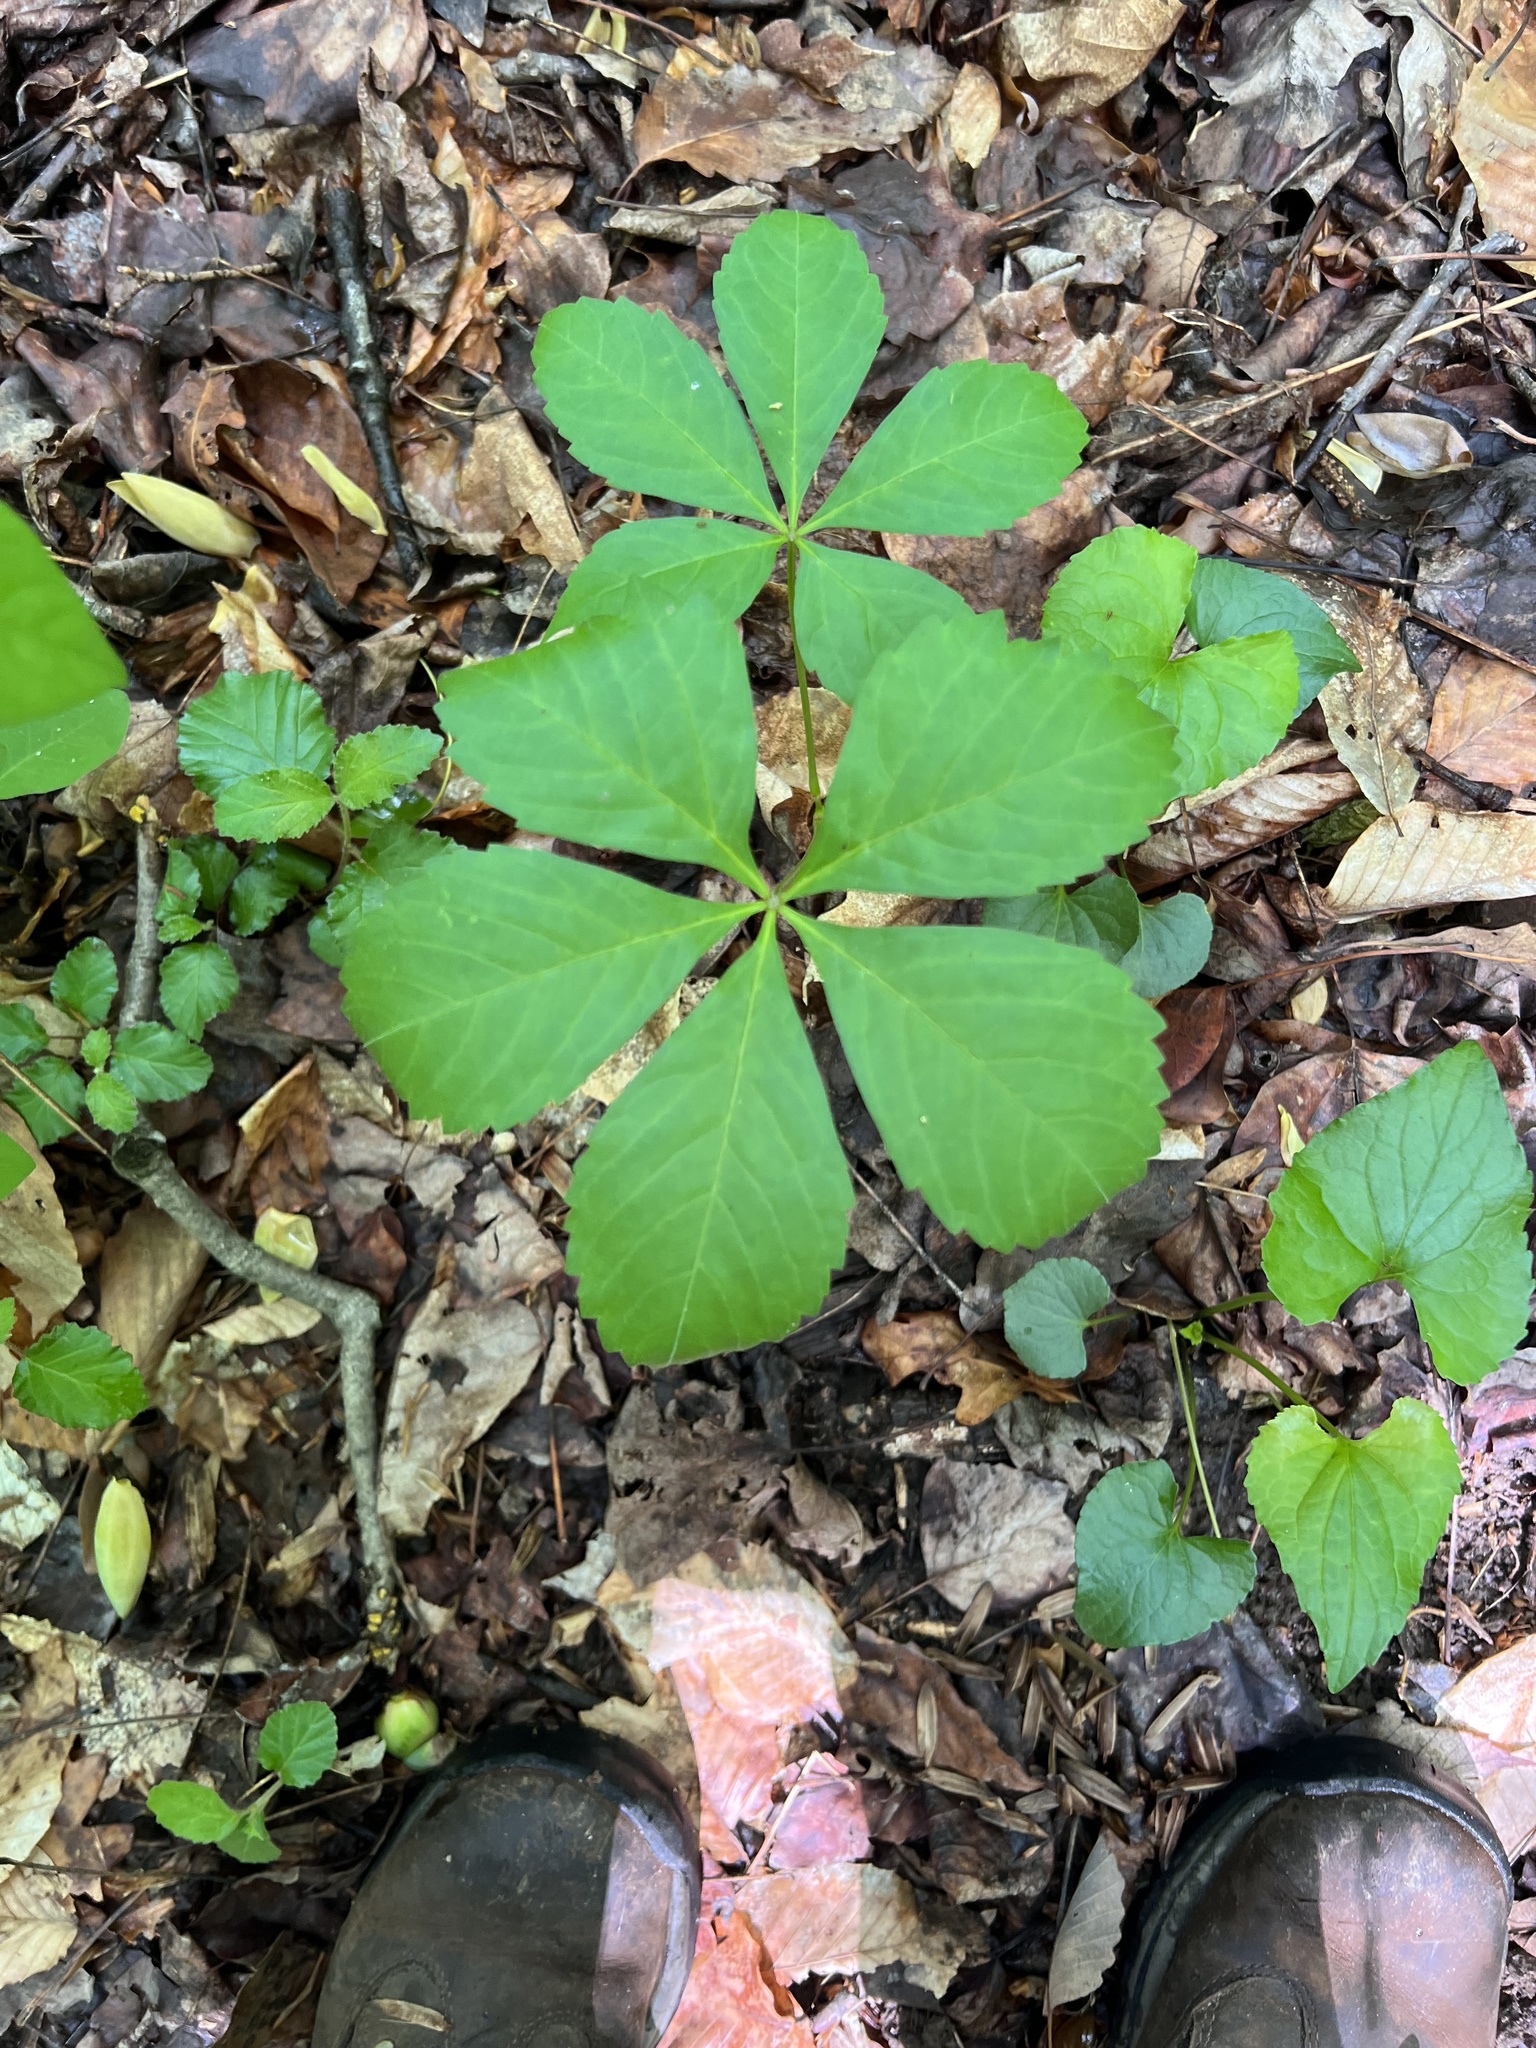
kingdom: Plantae
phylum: Tracheophyta
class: Magnoliopsida
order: Vitales
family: Vitaceae
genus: Parthenocissus
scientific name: Parthenocissus quinquefolia
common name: Virginia-creeper
